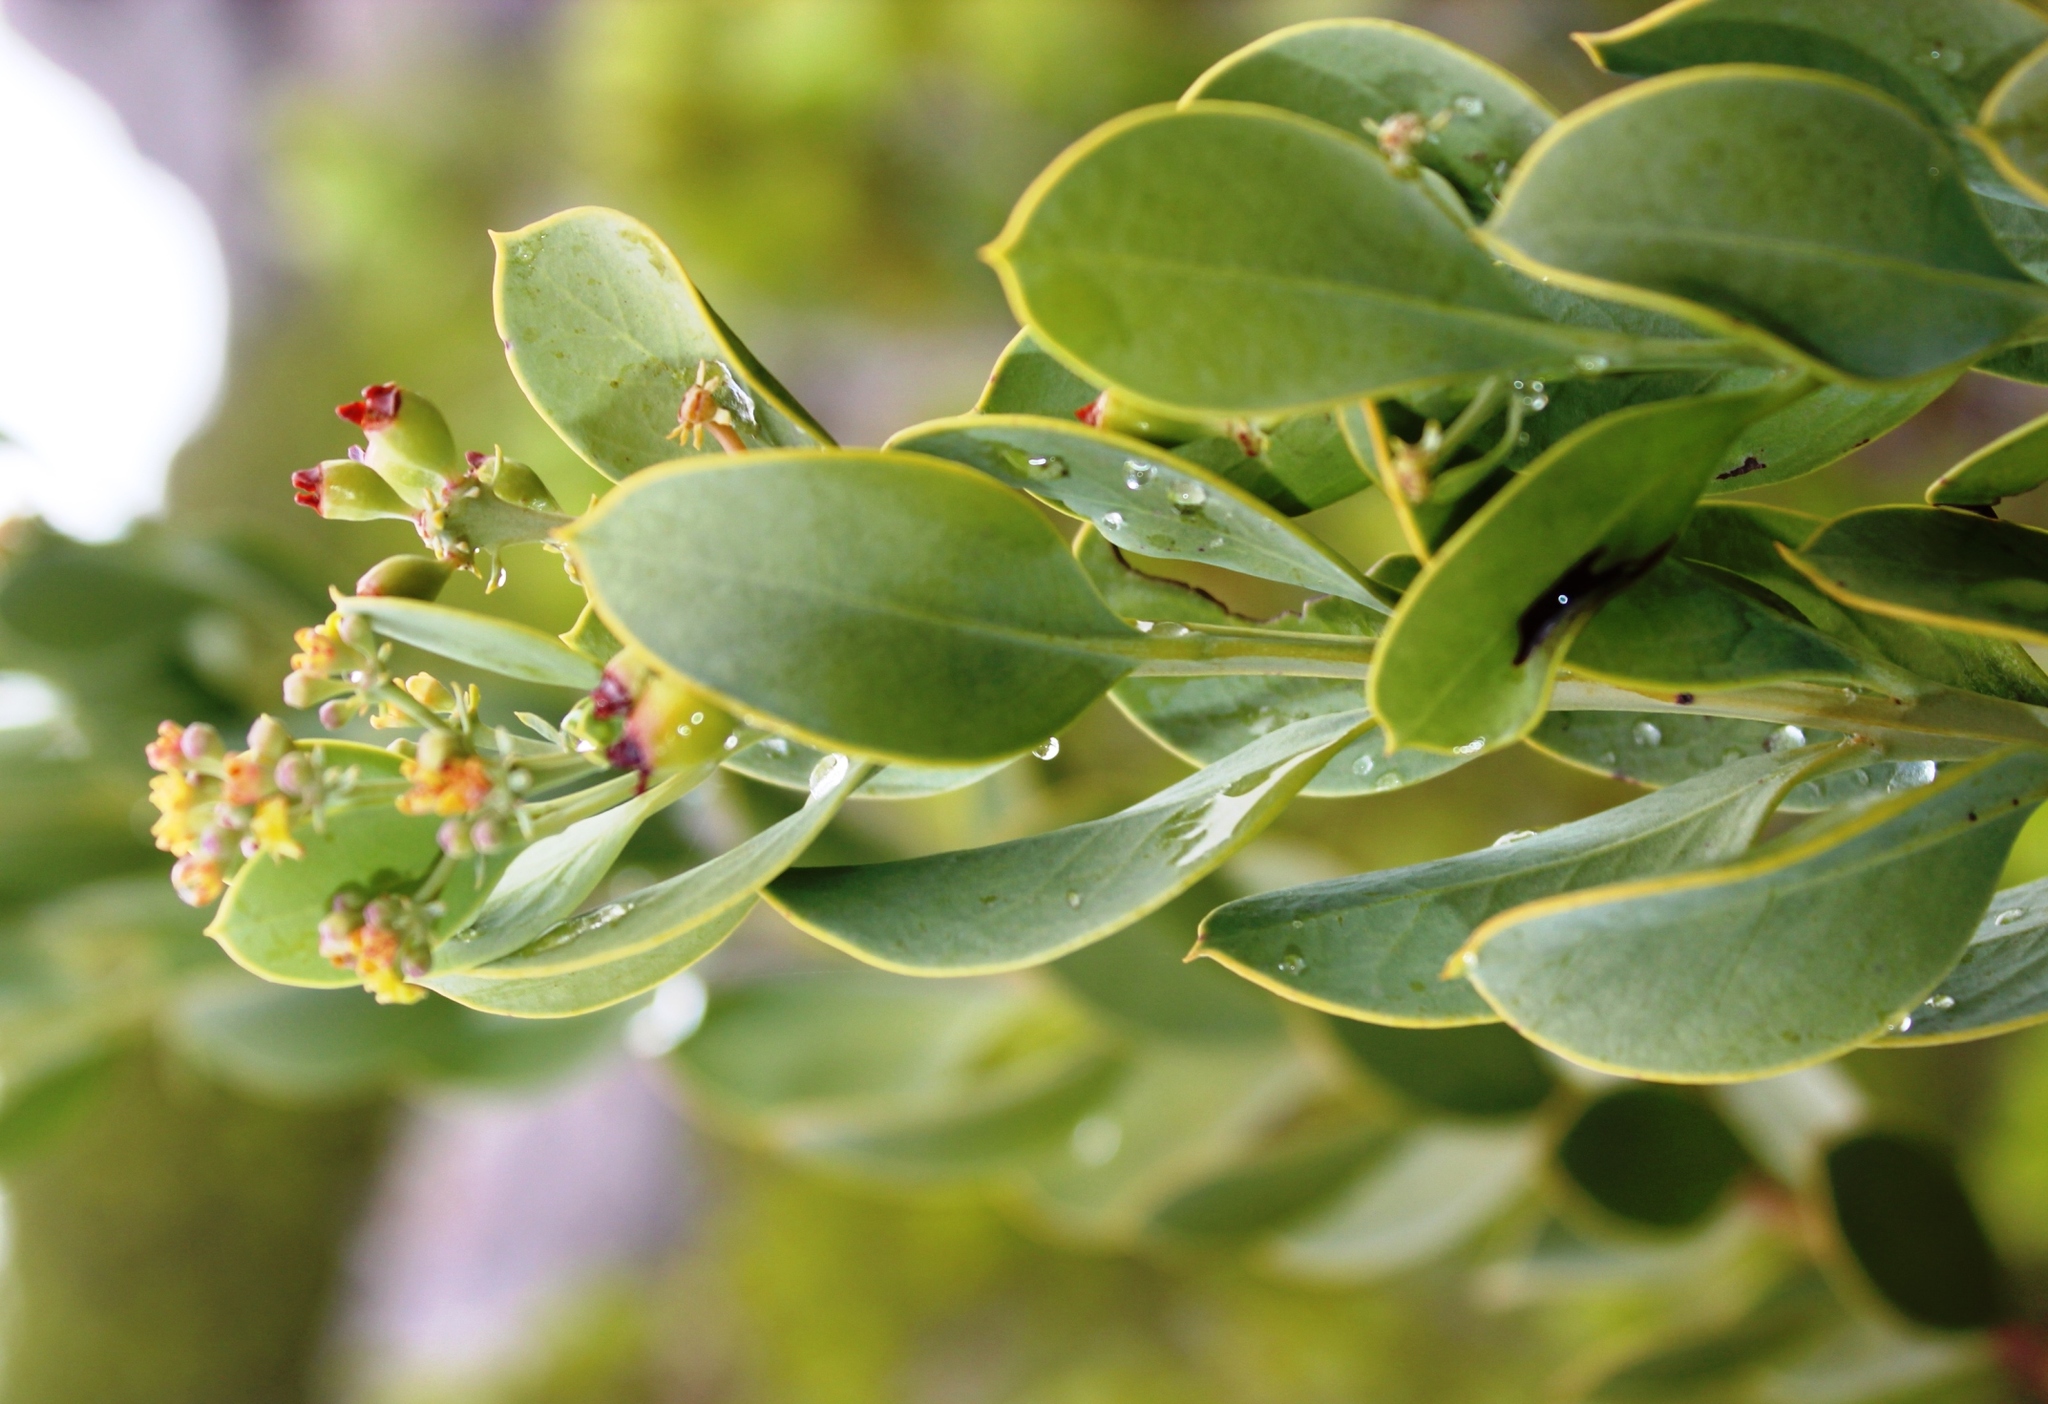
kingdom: Plantae
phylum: Tracheophyta
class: Magnoliopsida
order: Santalales
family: Santalaceae
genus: Osyris
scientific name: Osyris compressa
